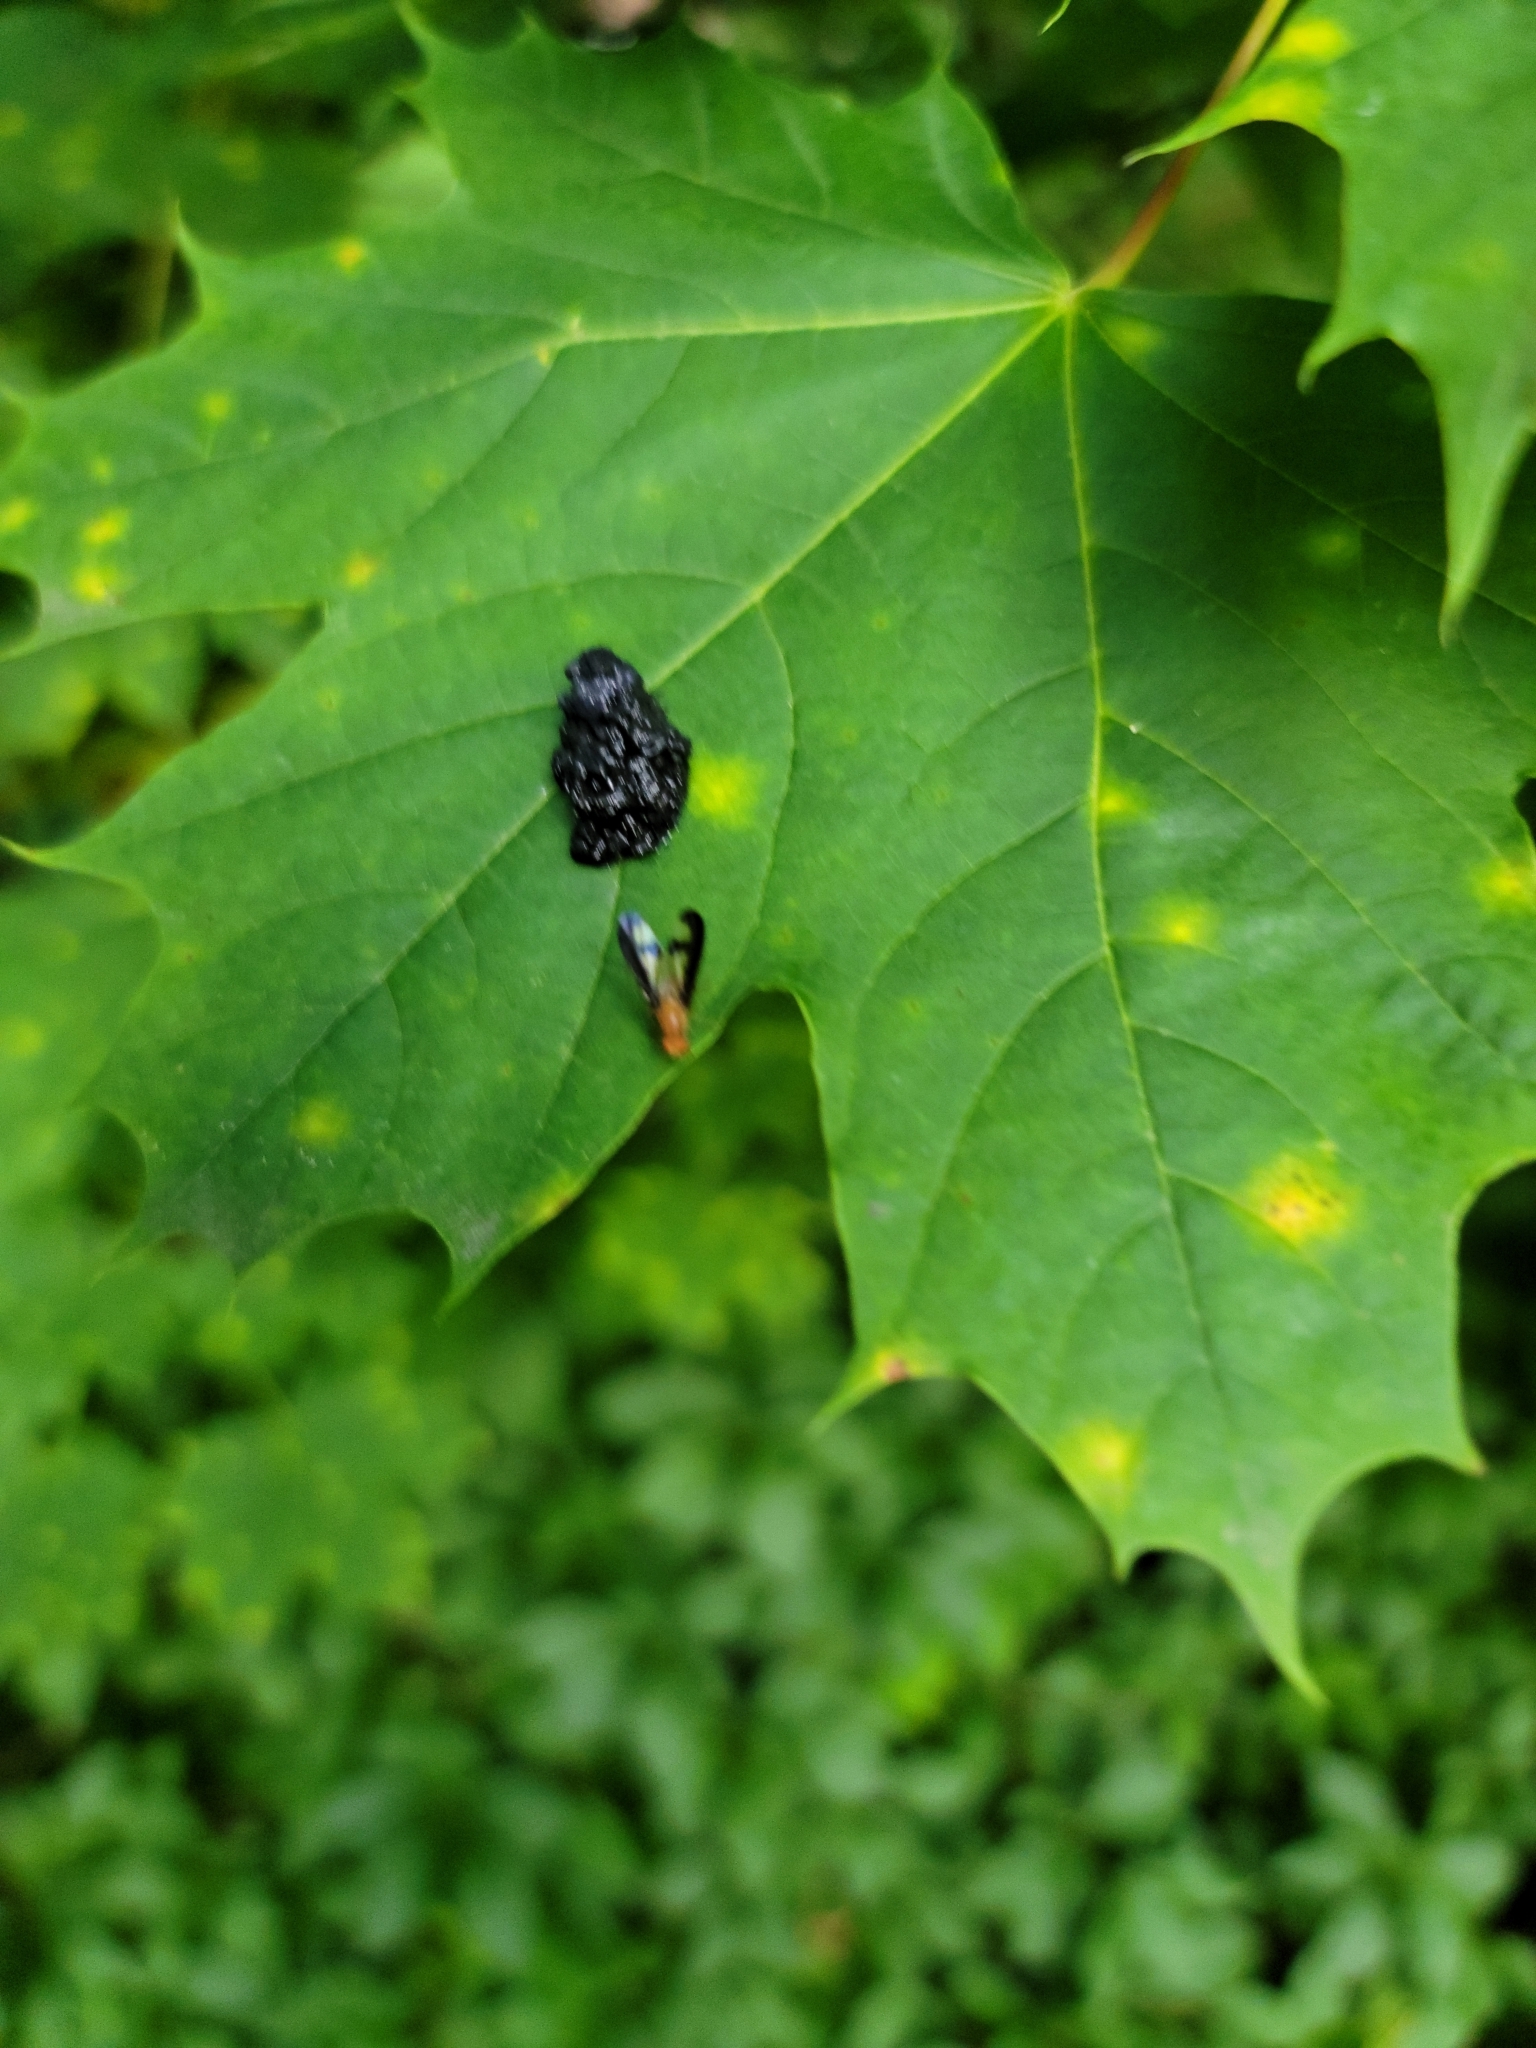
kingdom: Animalia
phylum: Arthropoda
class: Insecta
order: Diptera
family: Pallopteridae
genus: Toxonevra
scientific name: Toxonevra superba
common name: Antlered flutter fly
